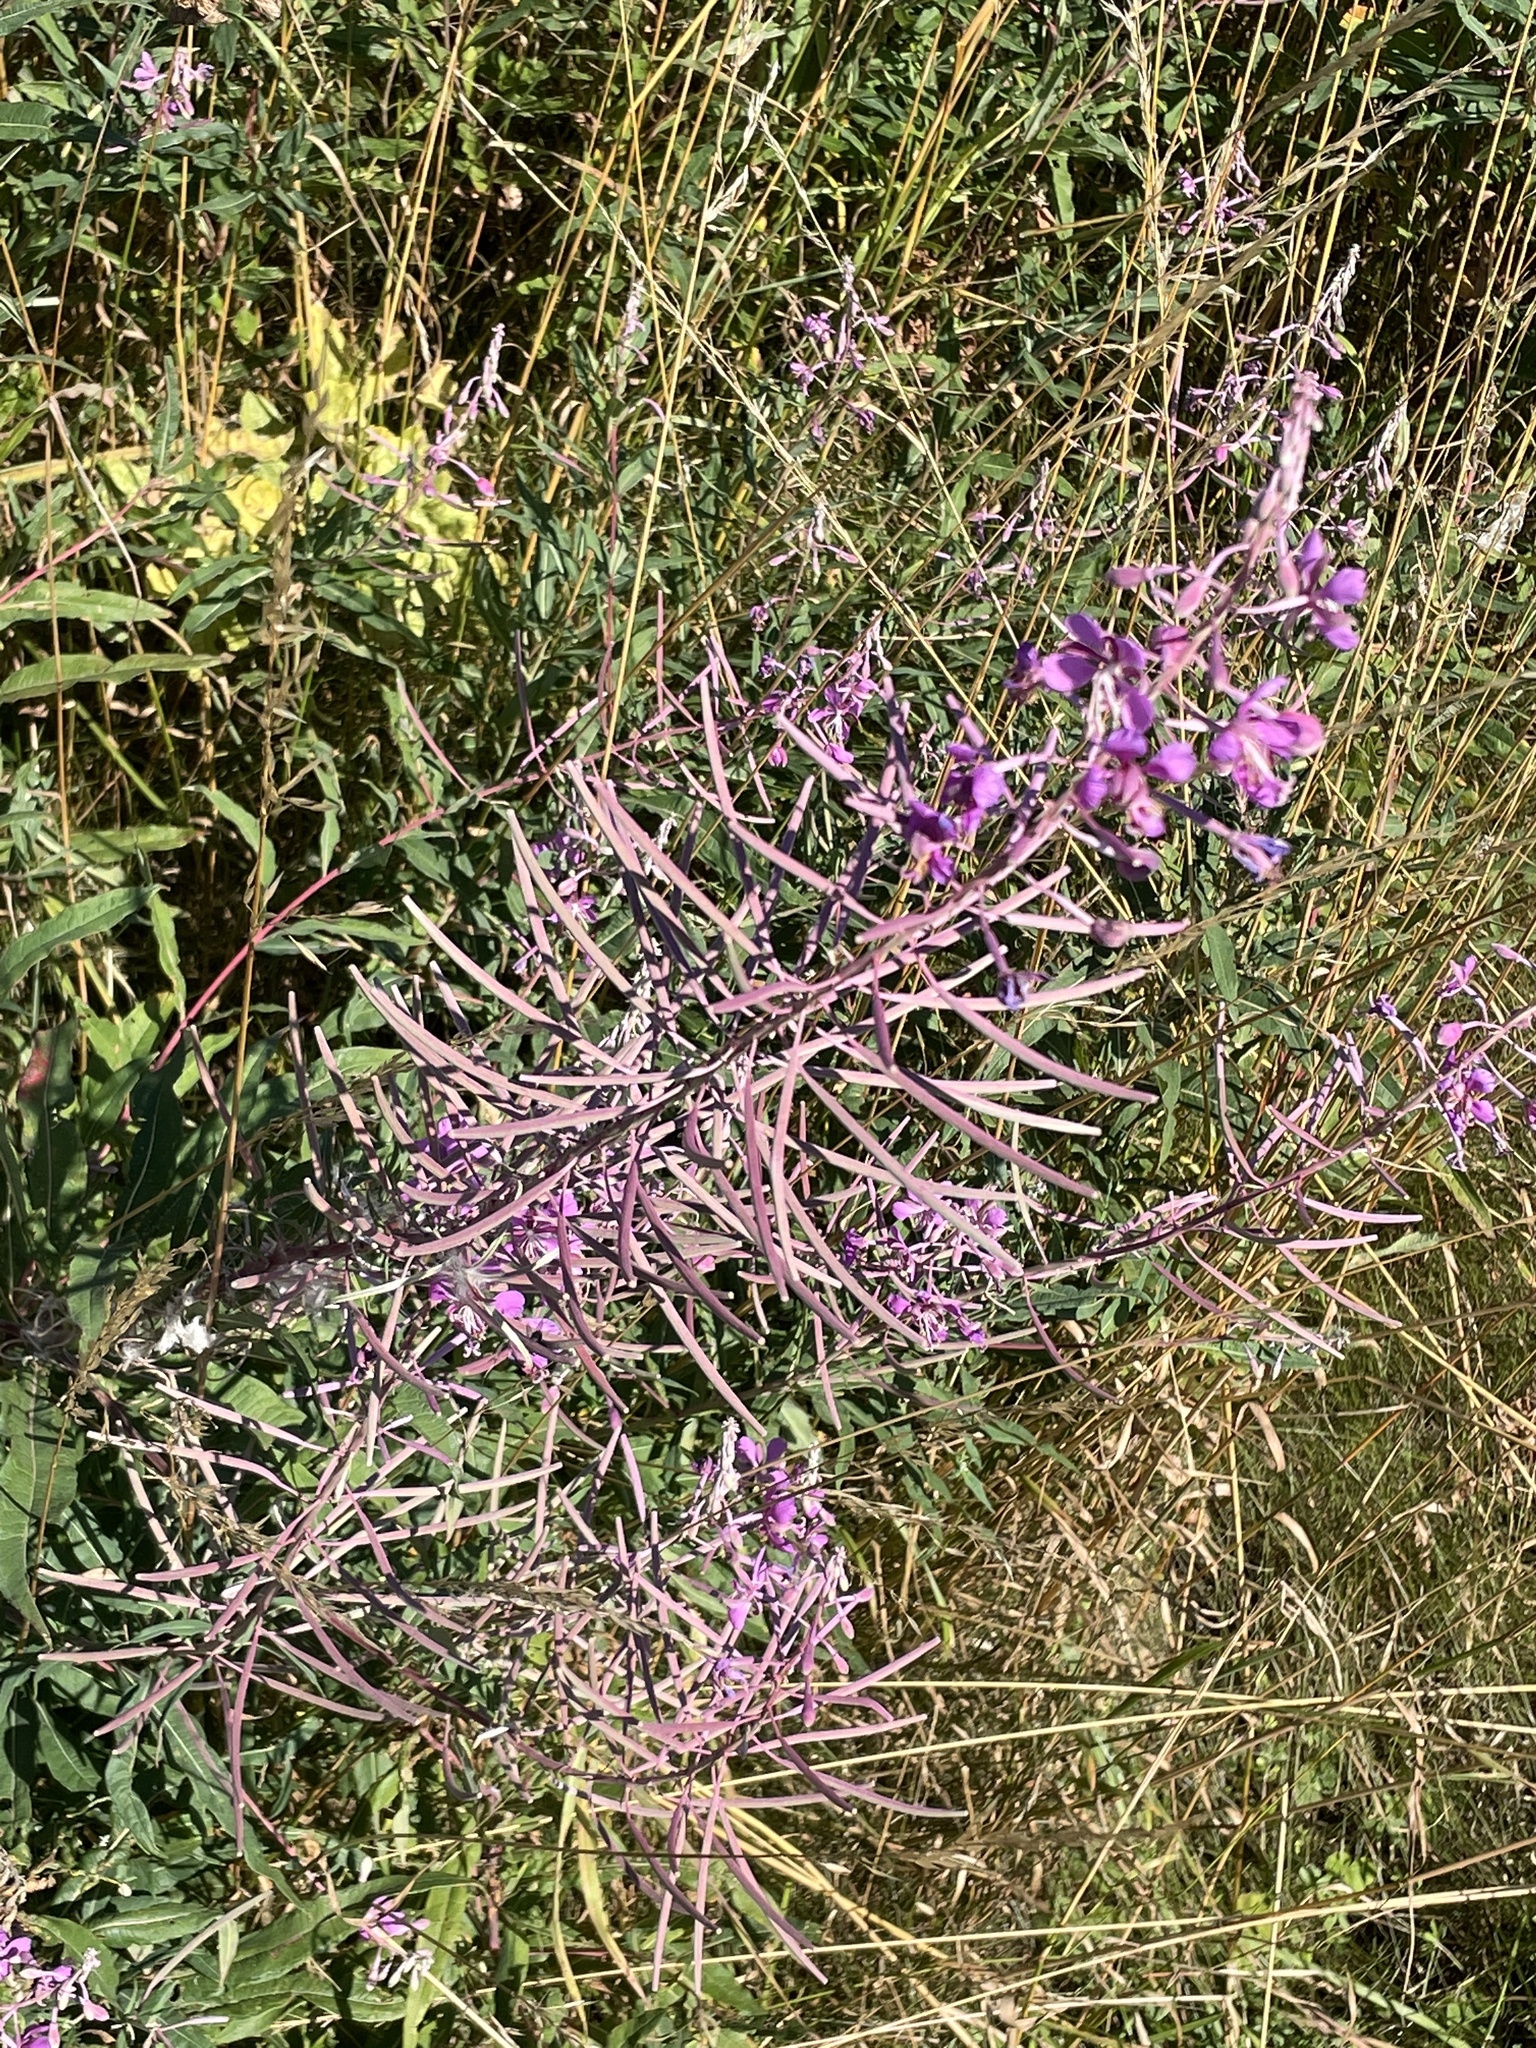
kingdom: Plantae
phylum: Tracheophyta
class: Magnoliopsida
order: Myrtales
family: Onagraceae
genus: Chamaenerion
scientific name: Chamaenerion angustifolium
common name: Fireweed
